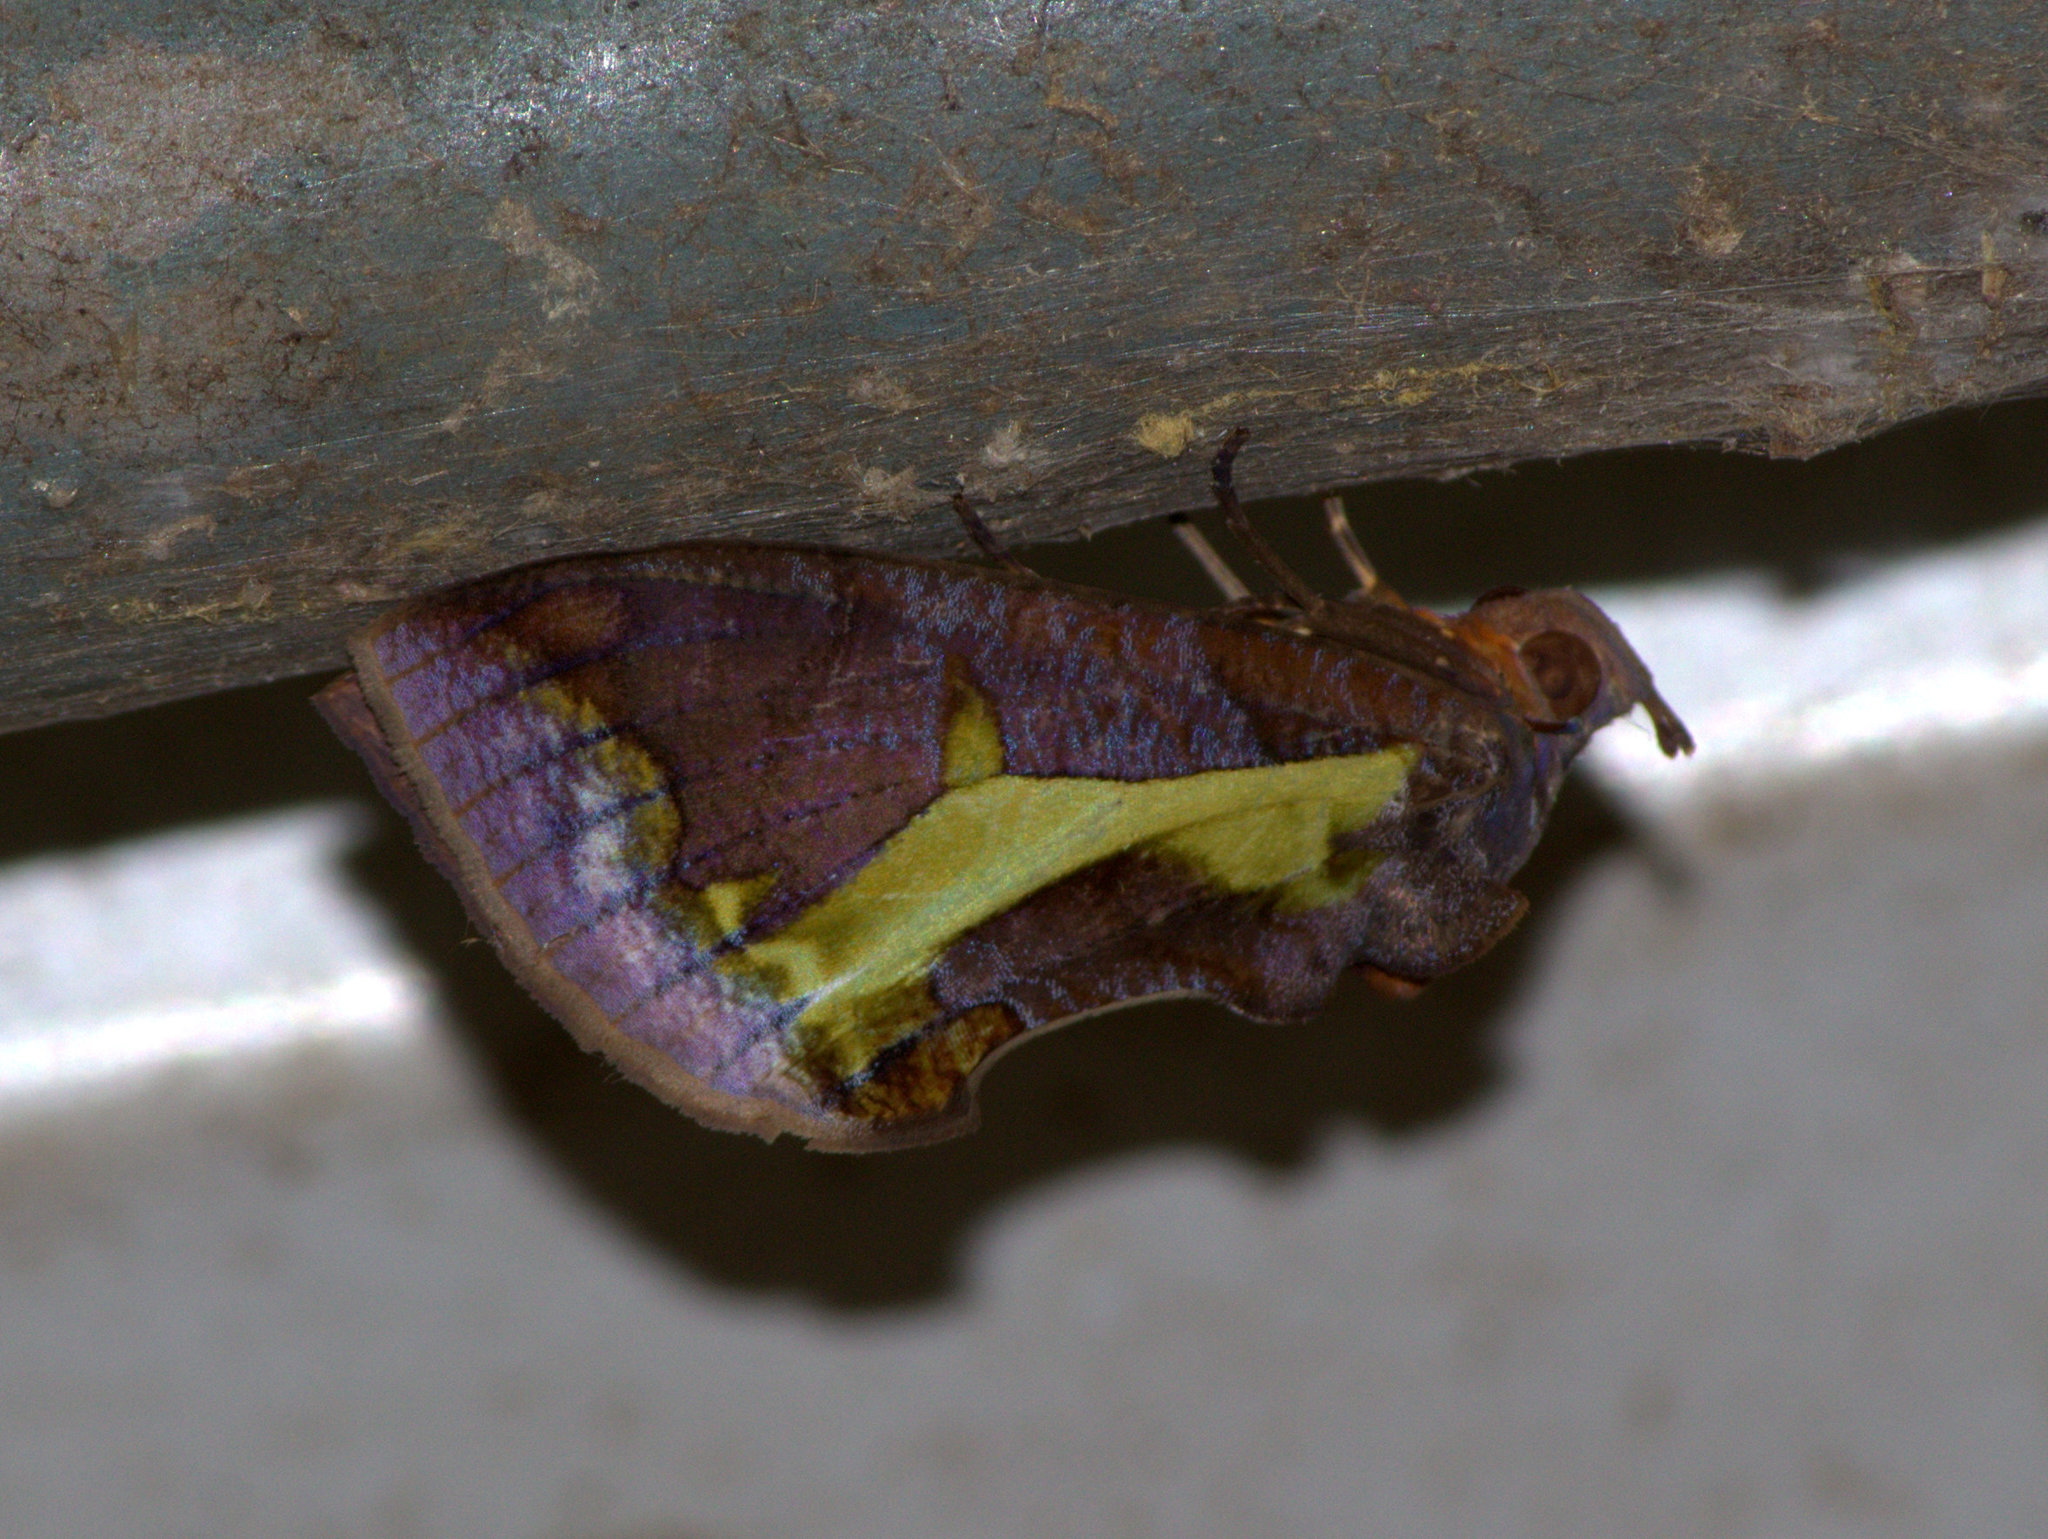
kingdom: Animalia
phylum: Arthropoda
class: Insecta
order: Lepidoptera
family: Erebidae
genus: Eudocima
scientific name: Eudocima homaena
